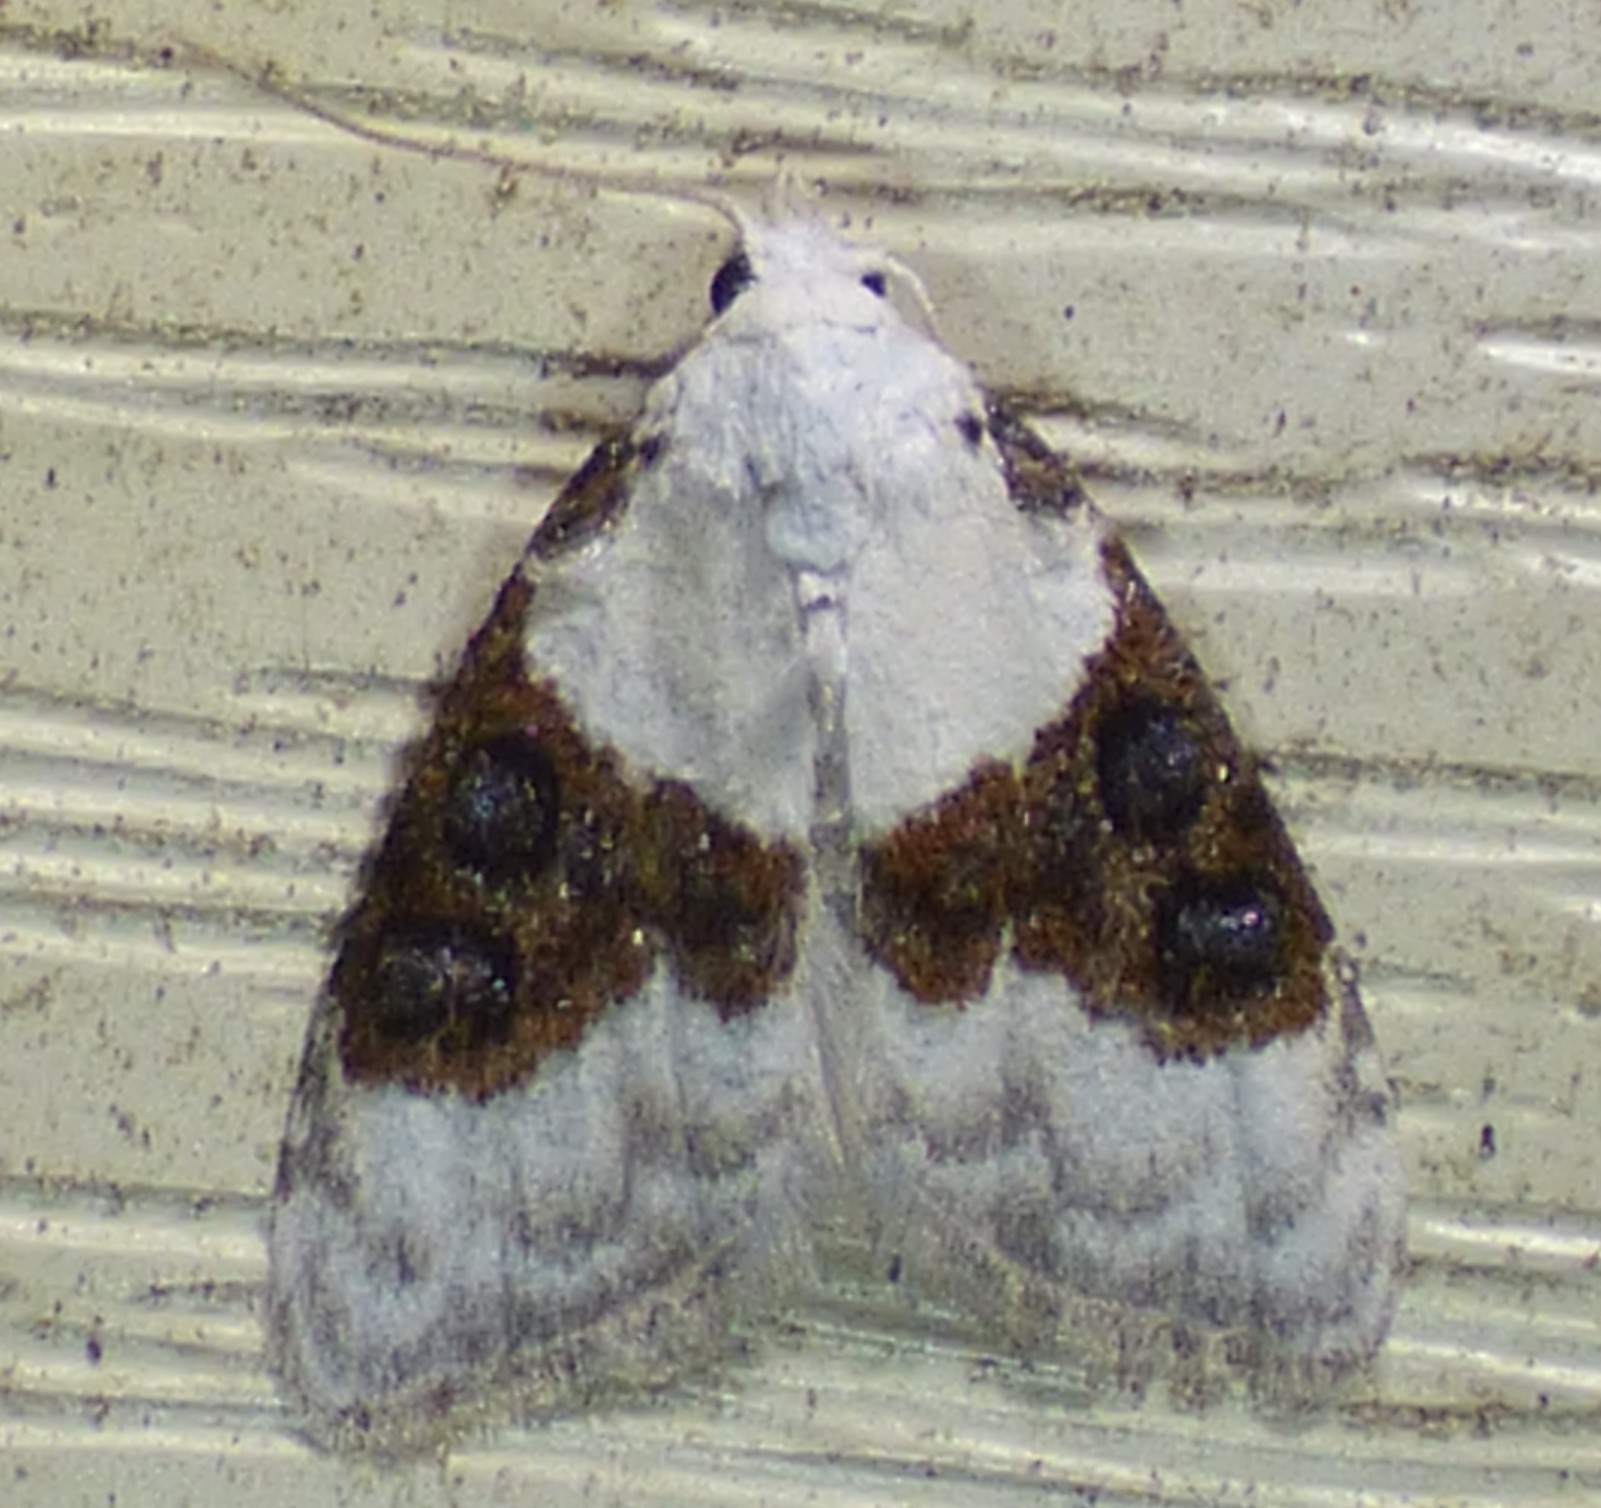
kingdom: Animalia
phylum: Arthropoda
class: Insecta
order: Lepidoptera
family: Nolidae
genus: Nola
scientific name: Nola pustulata
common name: Sharp-blotched nola moth
